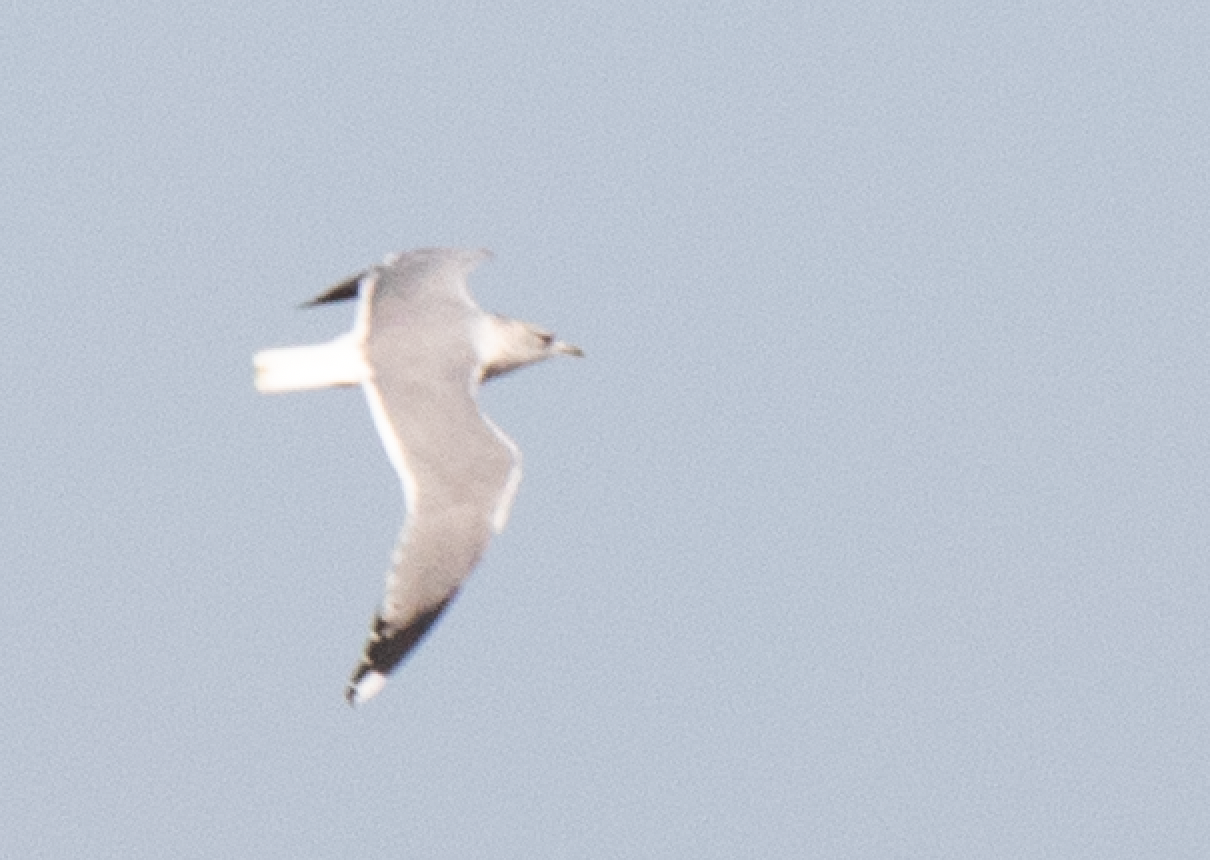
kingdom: Animalia
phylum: Chordata
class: Aves
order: Charadriiformes
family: Laridae
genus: Larus
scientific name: Larus canus
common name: Mew gull
